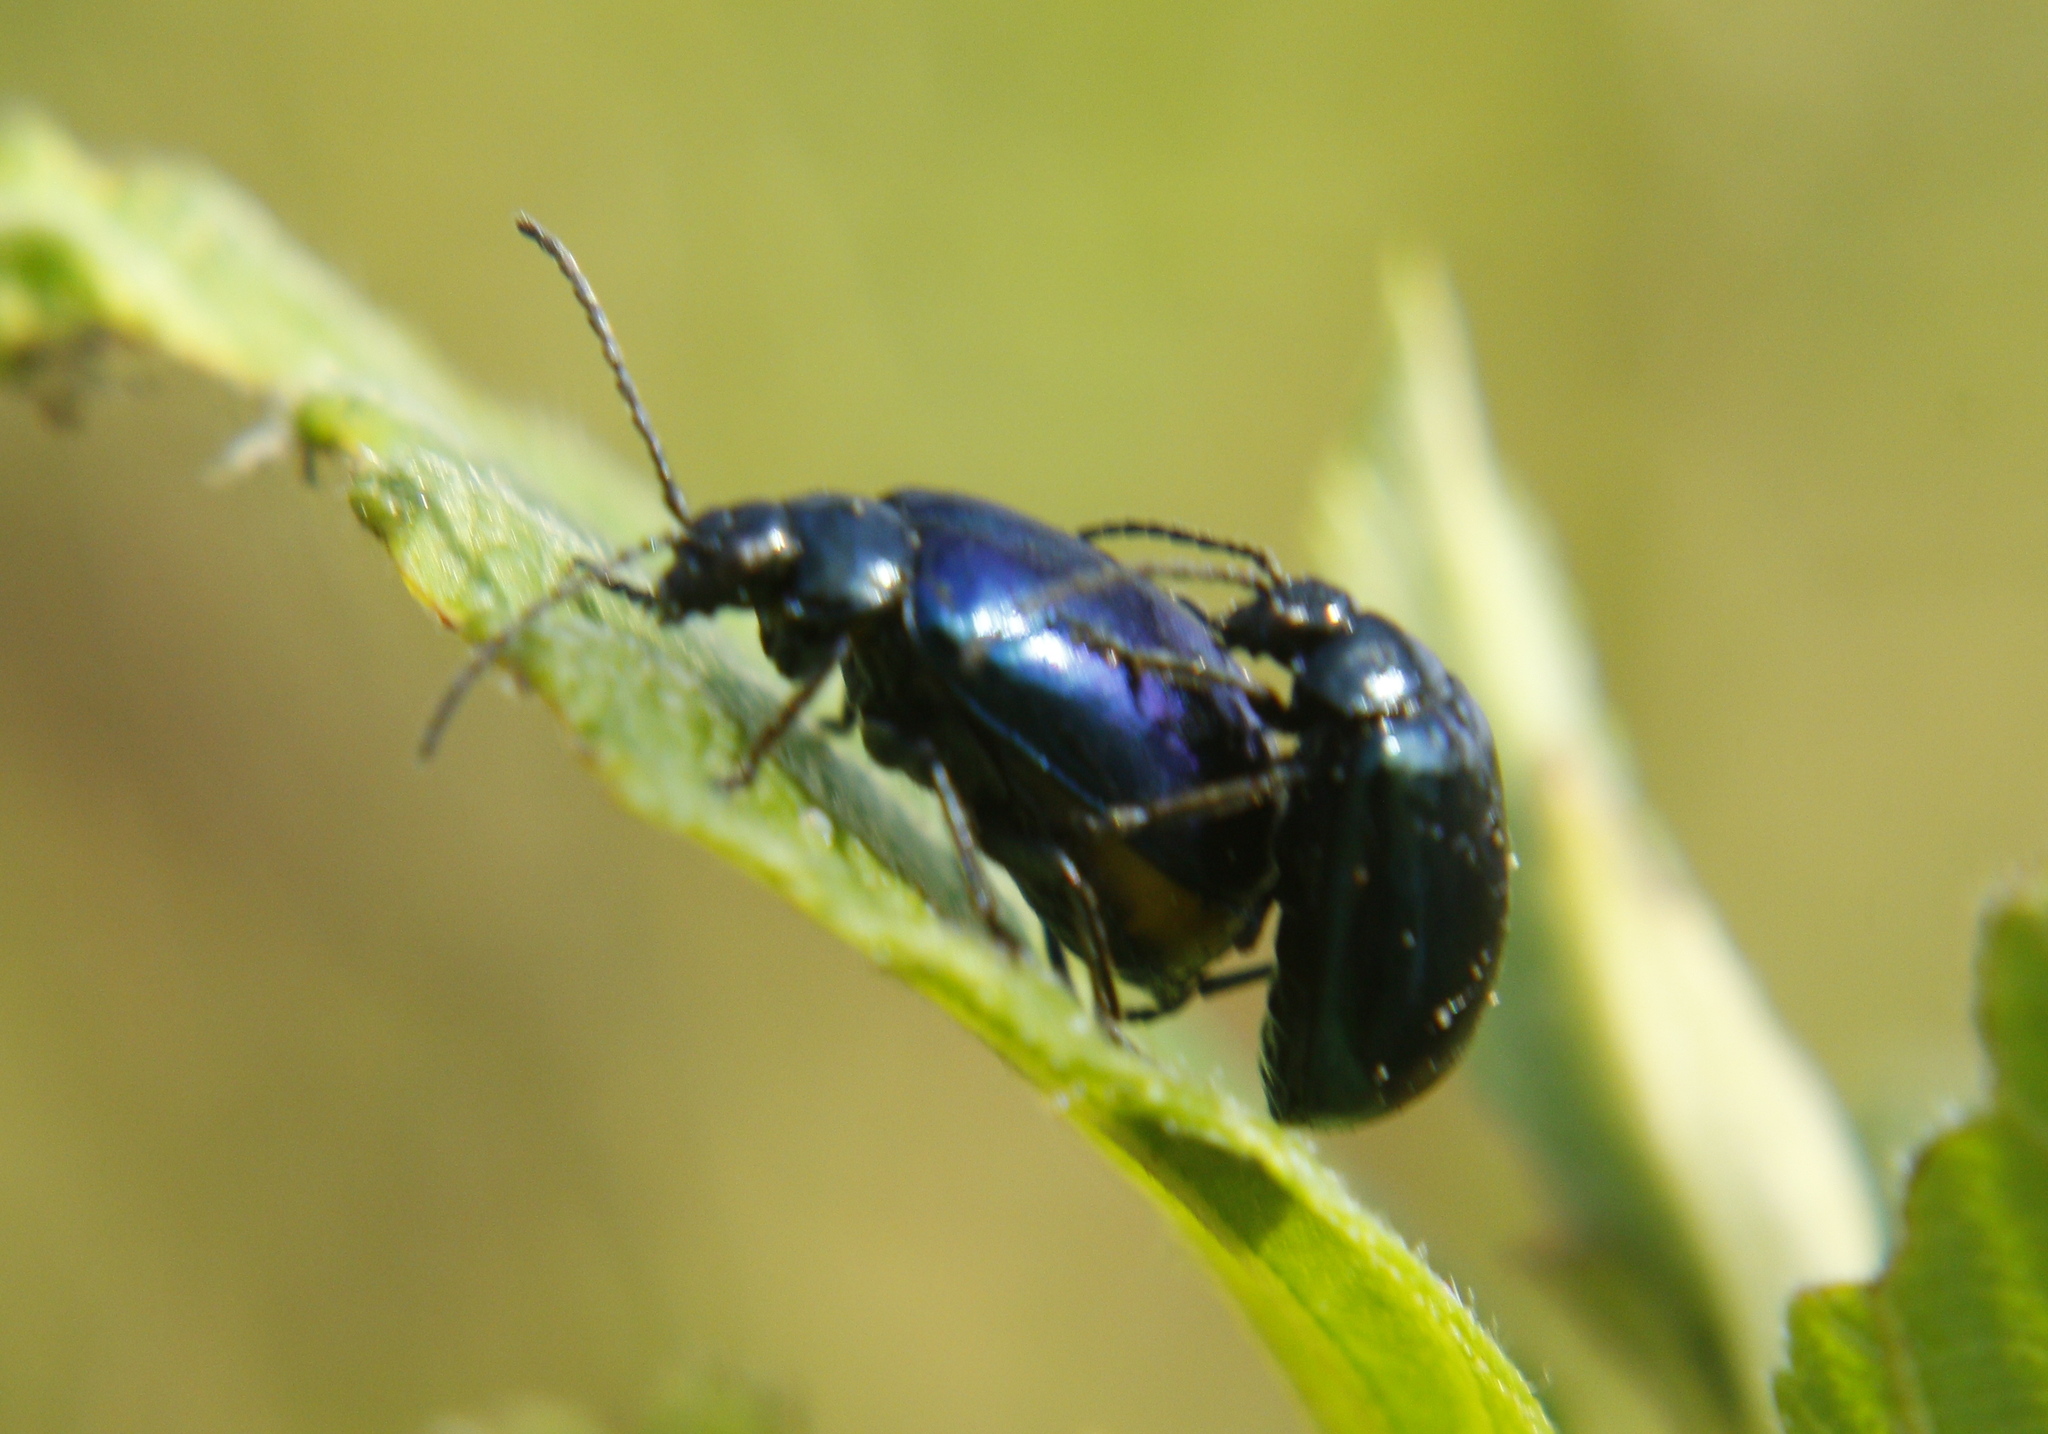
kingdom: Animalia
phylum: Arthropoda
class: Insecta
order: Coleoptera
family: Chrysomelidae
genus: Agelastica
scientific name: Agelastica alni
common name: Alder leaf beetle
